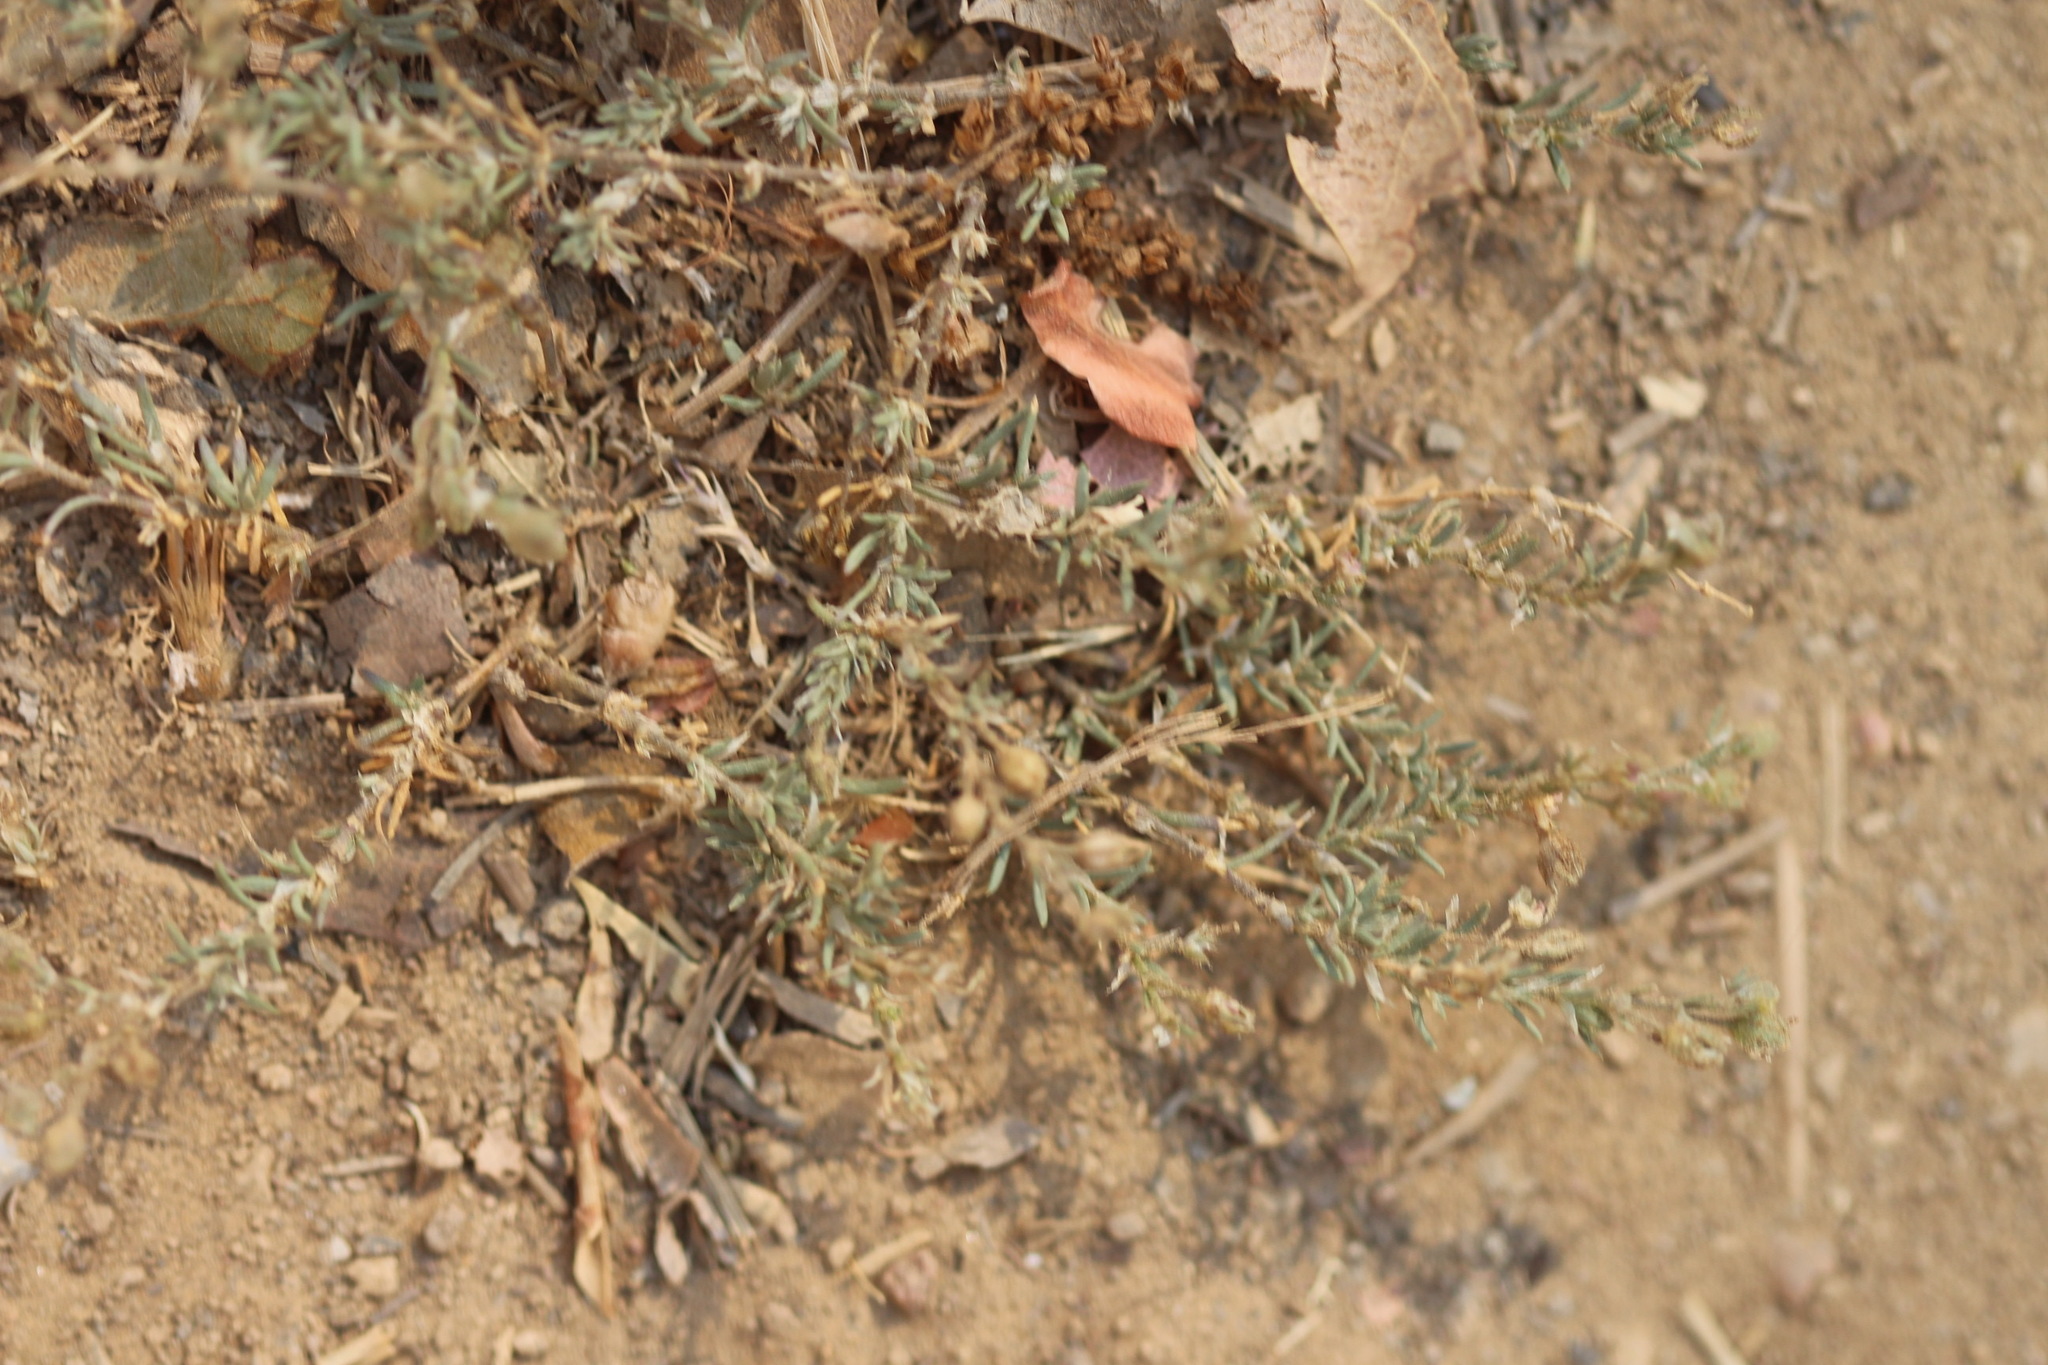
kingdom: Plantae
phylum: Tracheophyta
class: Magnoliopsida
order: Caryophyllales
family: Caryophyllaceae
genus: Spergularia
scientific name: Spergularia rubra
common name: Red sand-spurrey
